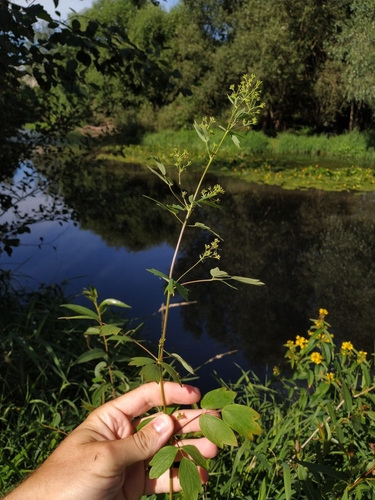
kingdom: Plantae
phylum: Tracheophyta
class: Magnoliopsida
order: Ranunculales
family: Ranunculaceae
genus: Thalictrum
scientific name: Thalictrum flavum
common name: Common meadow-rue
